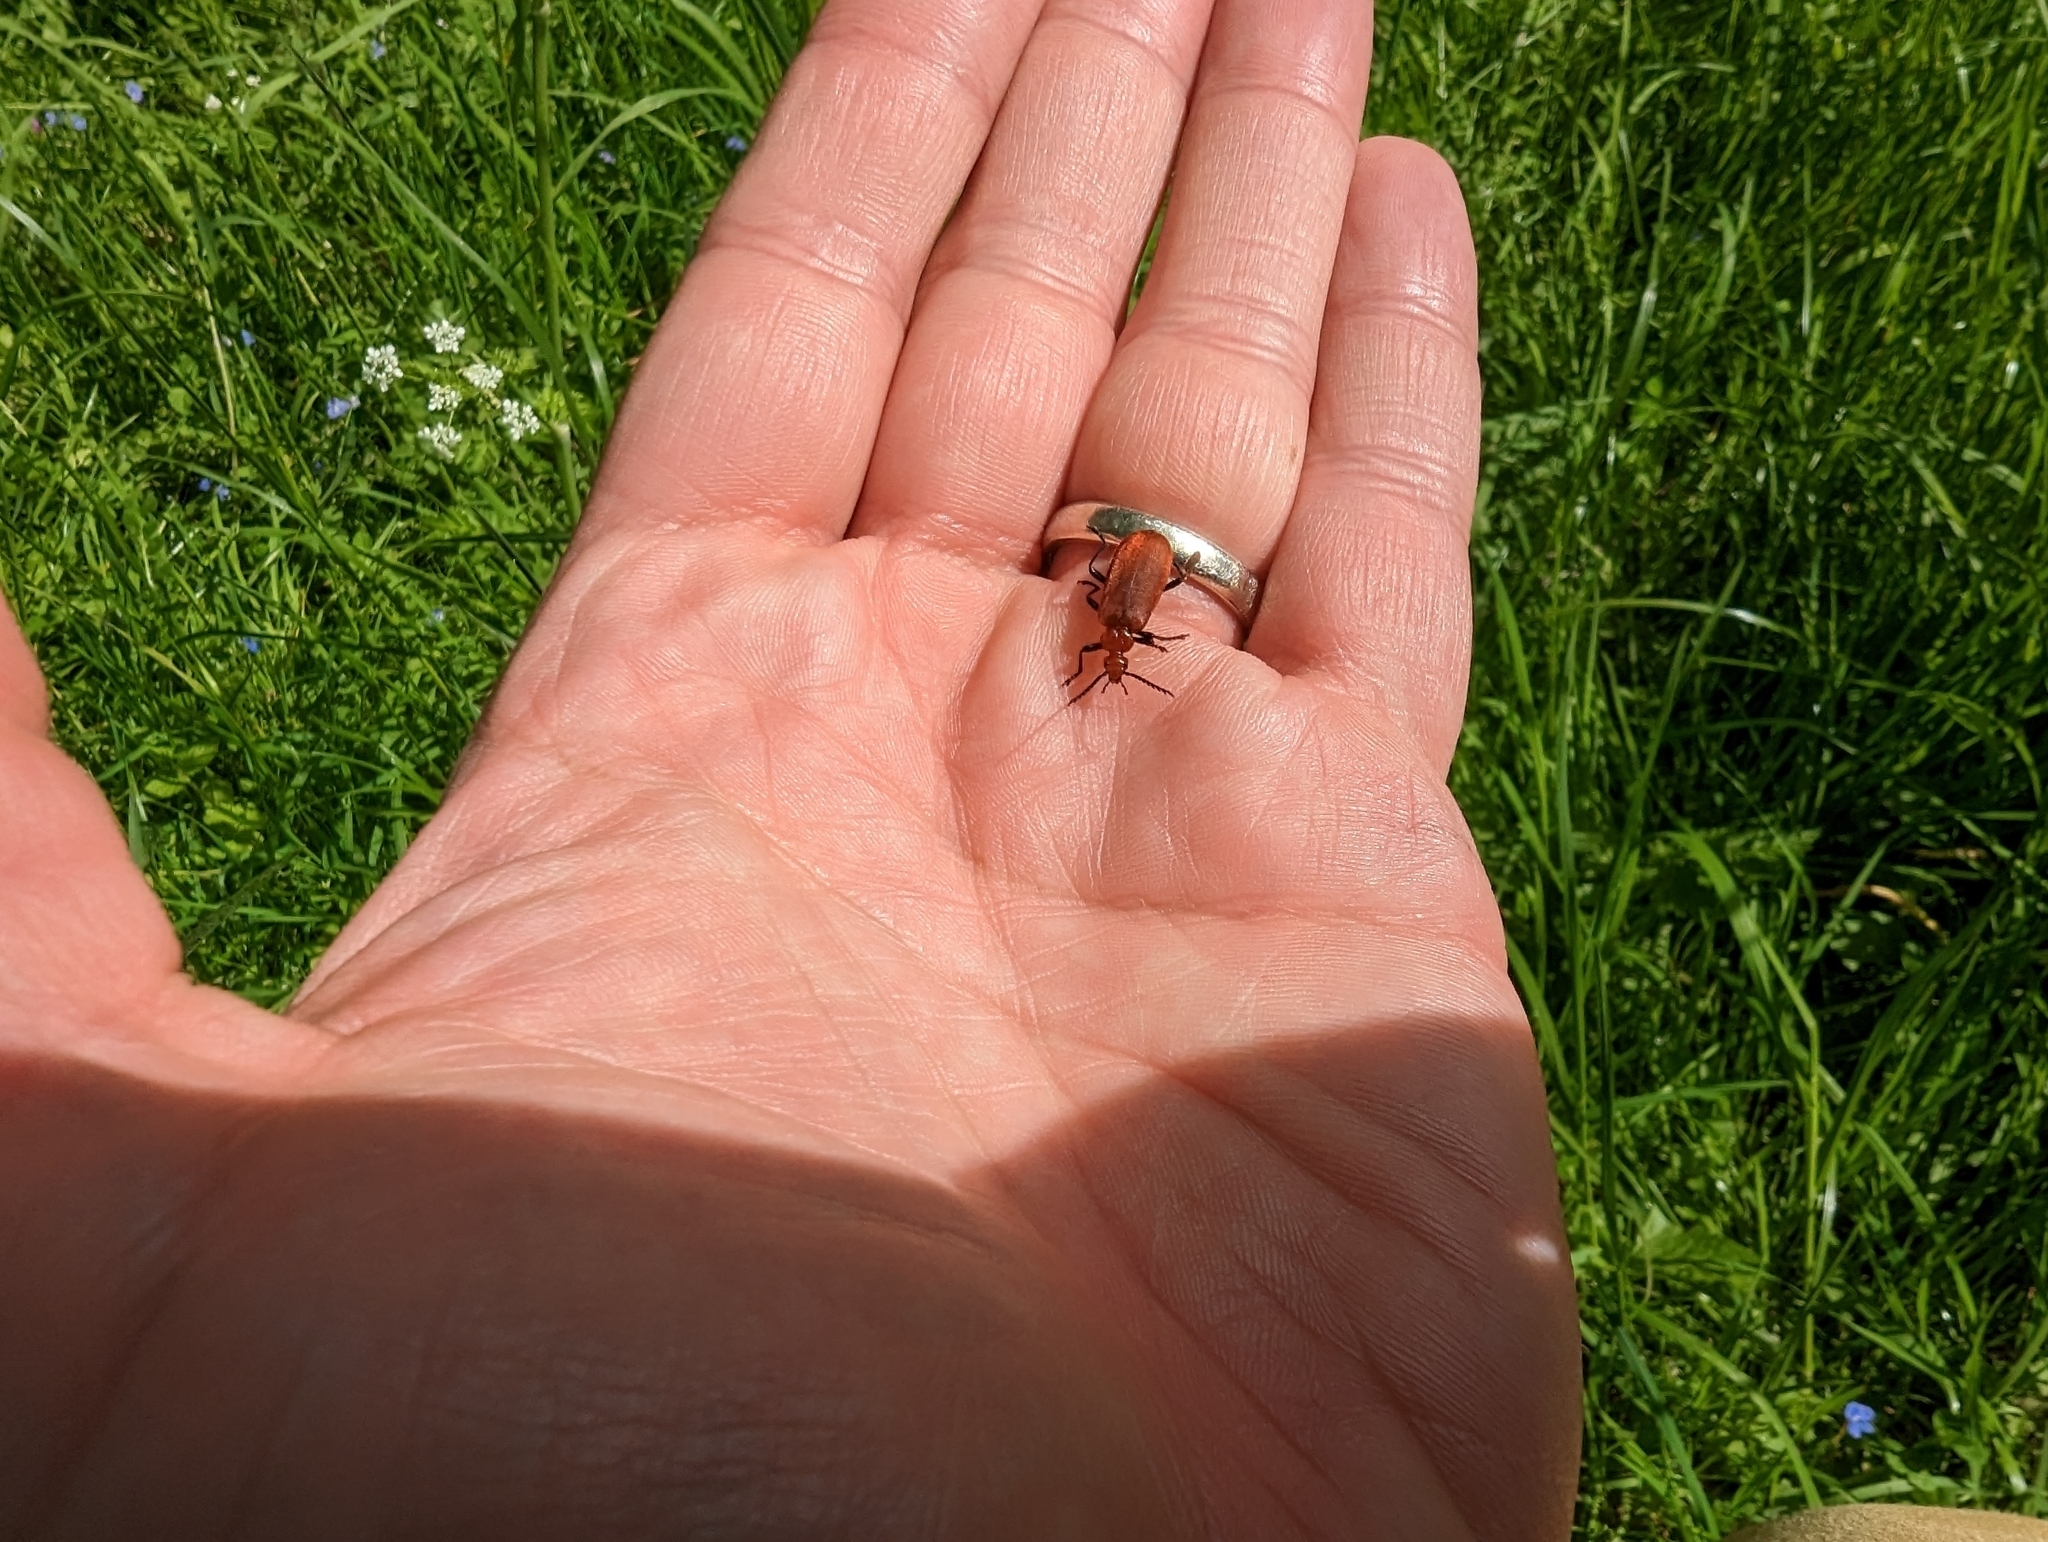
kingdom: Animalia
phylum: Arthropoda
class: Insecta
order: Coleoptera
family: Pyrochroidae
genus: Pyrochroa
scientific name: Pyrochroa serraticornis
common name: Red-headed cardinal beetle
